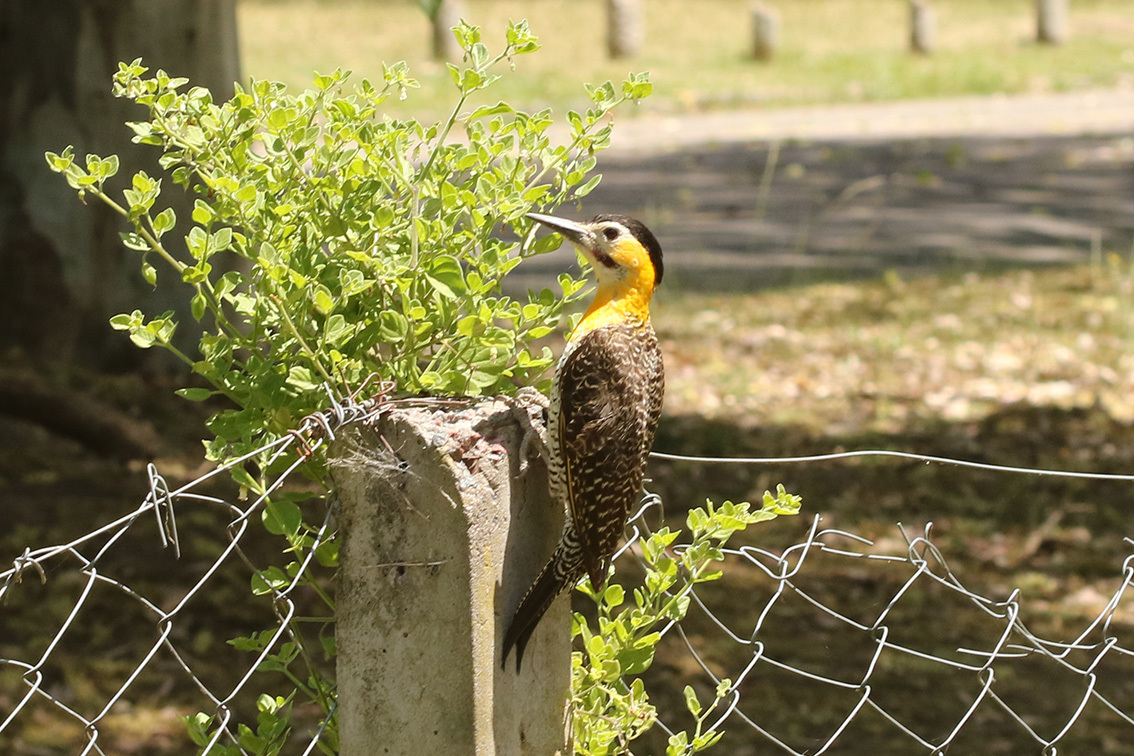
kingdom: Animalia
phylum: Chordata
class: Aves
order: Piciformes
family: Picidae
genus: Colaptes
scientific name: Colaptes campestris
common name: Campo flicker
